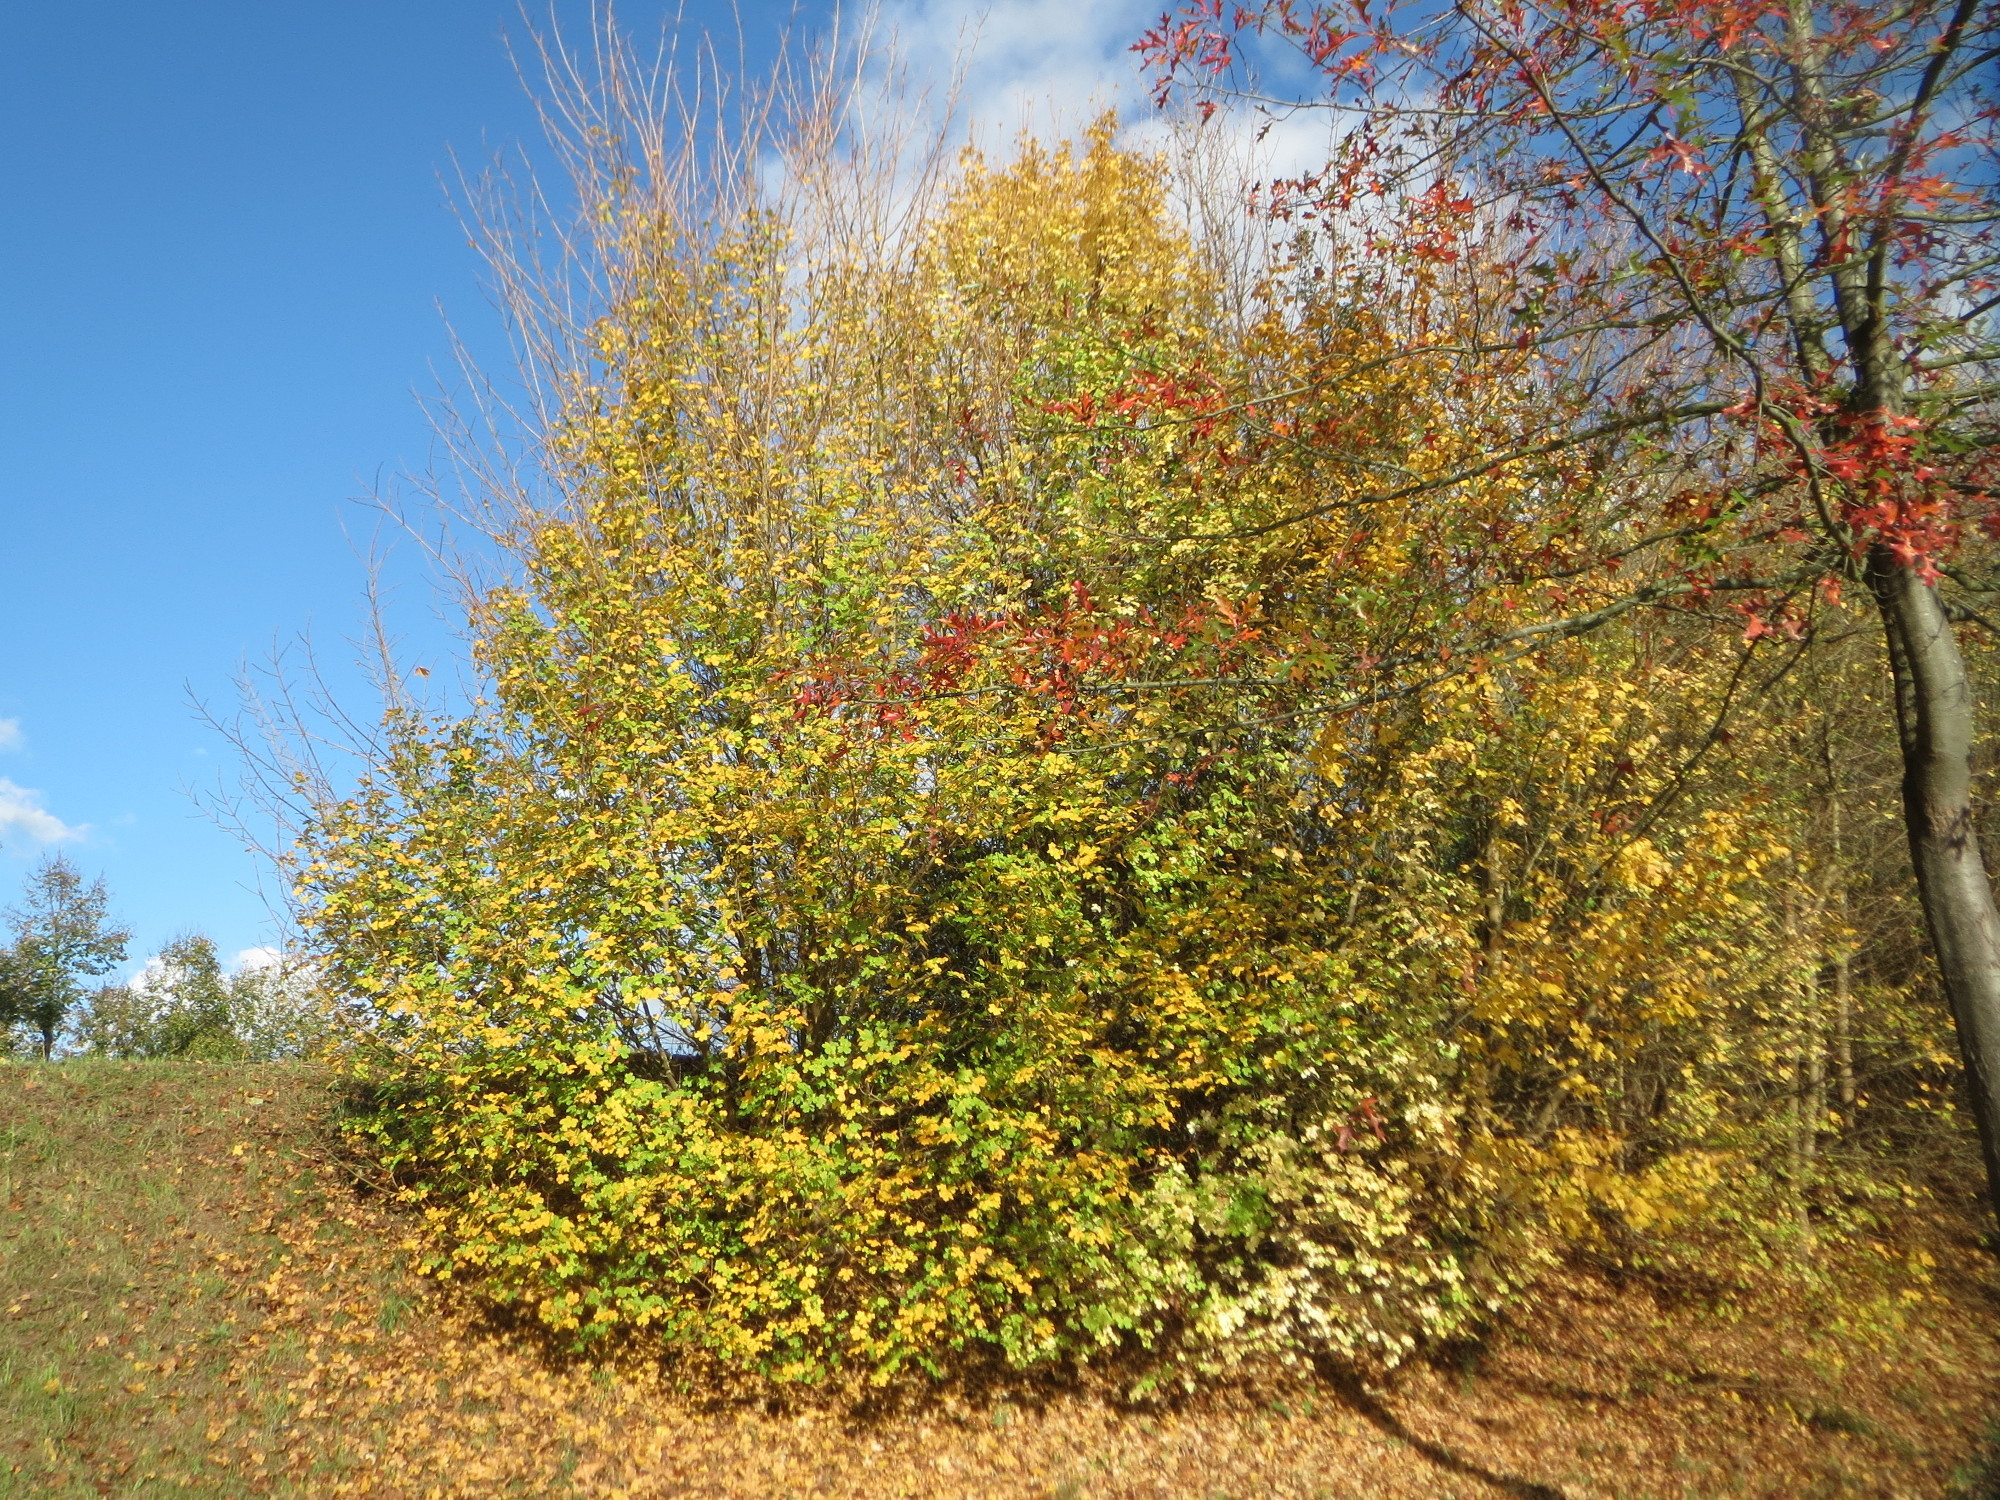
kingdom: Plantae
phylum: Tracheophyta
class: Magnoliopsida
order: Sapindales
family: Sapindaceae
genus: Acer
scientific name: Acer campestre
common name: Field maple
